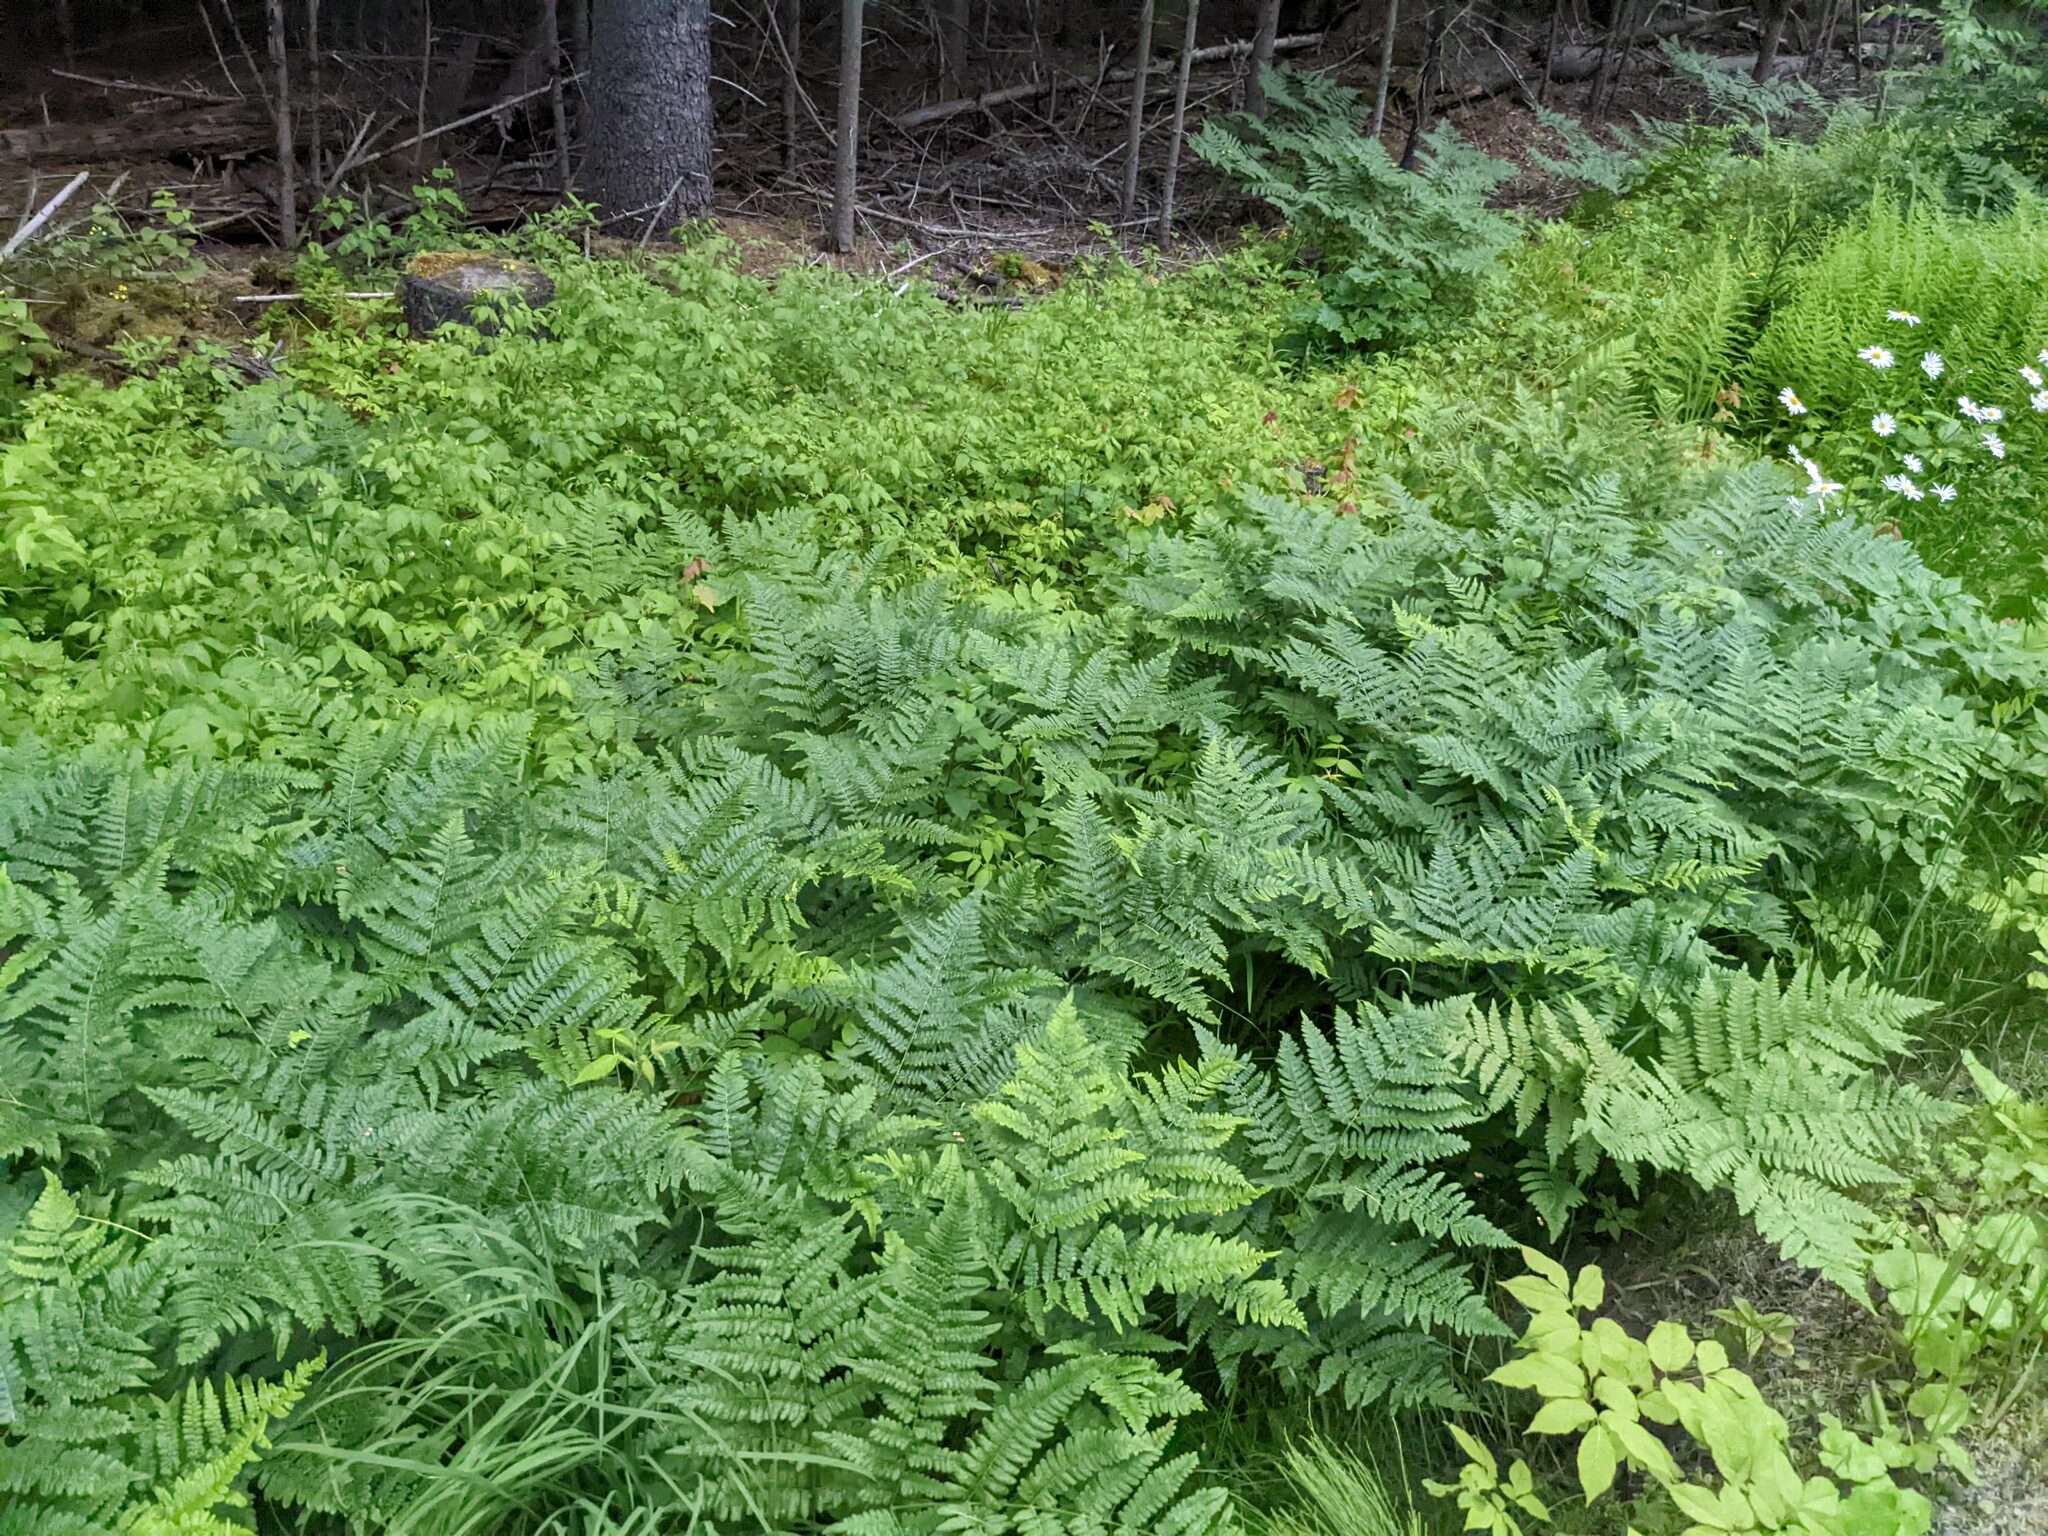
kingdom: Plantae
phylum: Tracheophyta
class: Polypodiopsida
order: Polypodiales
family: Dennstaedtiaceae
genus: Pteridium
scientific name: Pteridium aquilinum
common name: Bracken
